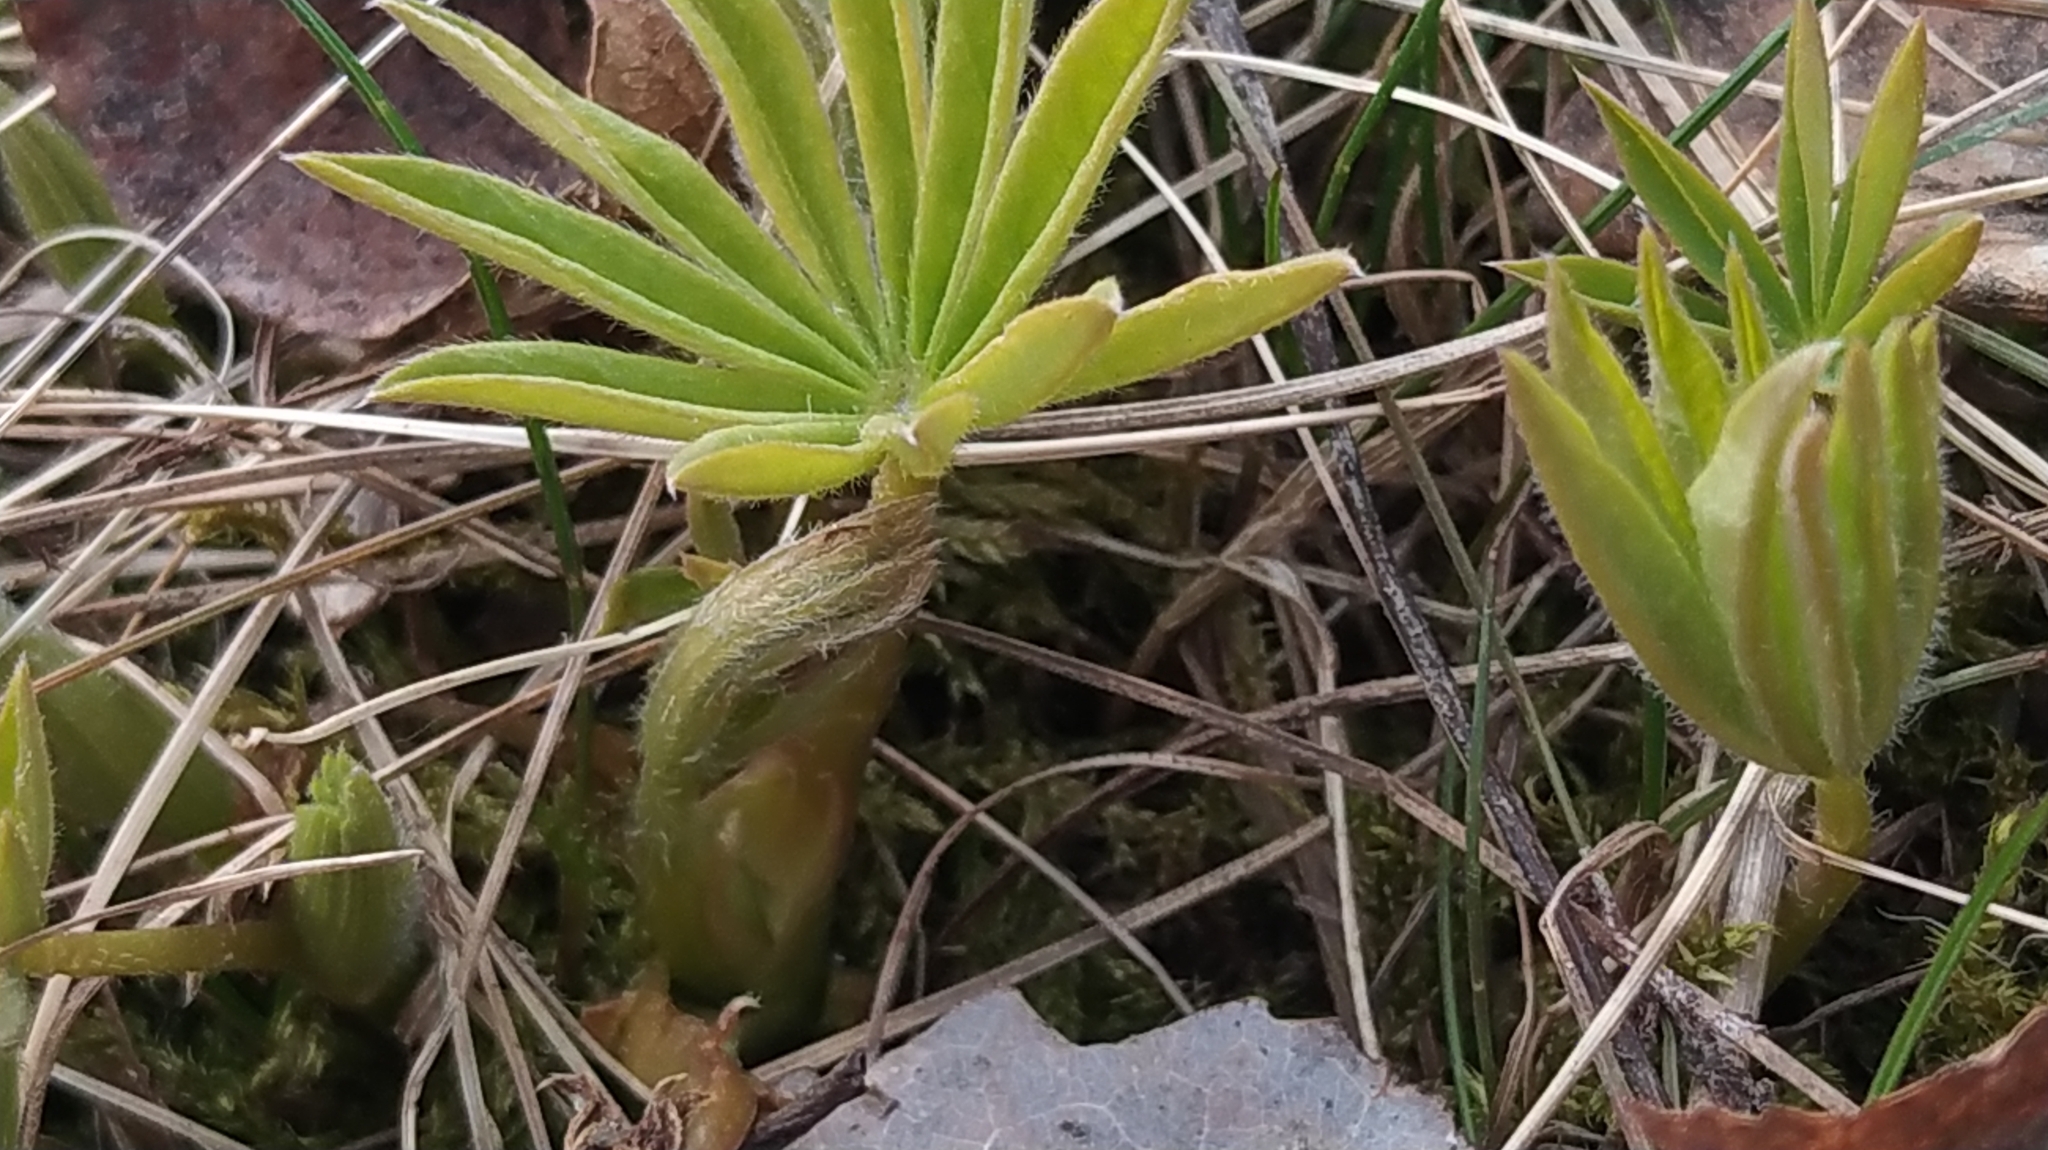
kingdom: Plantae
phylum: Tracheophyta
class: Magnoliopsida
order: Fabales
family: Fabaceae
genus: Lupinus
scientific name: Lupinus polyphyllus
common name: Garden lupin
